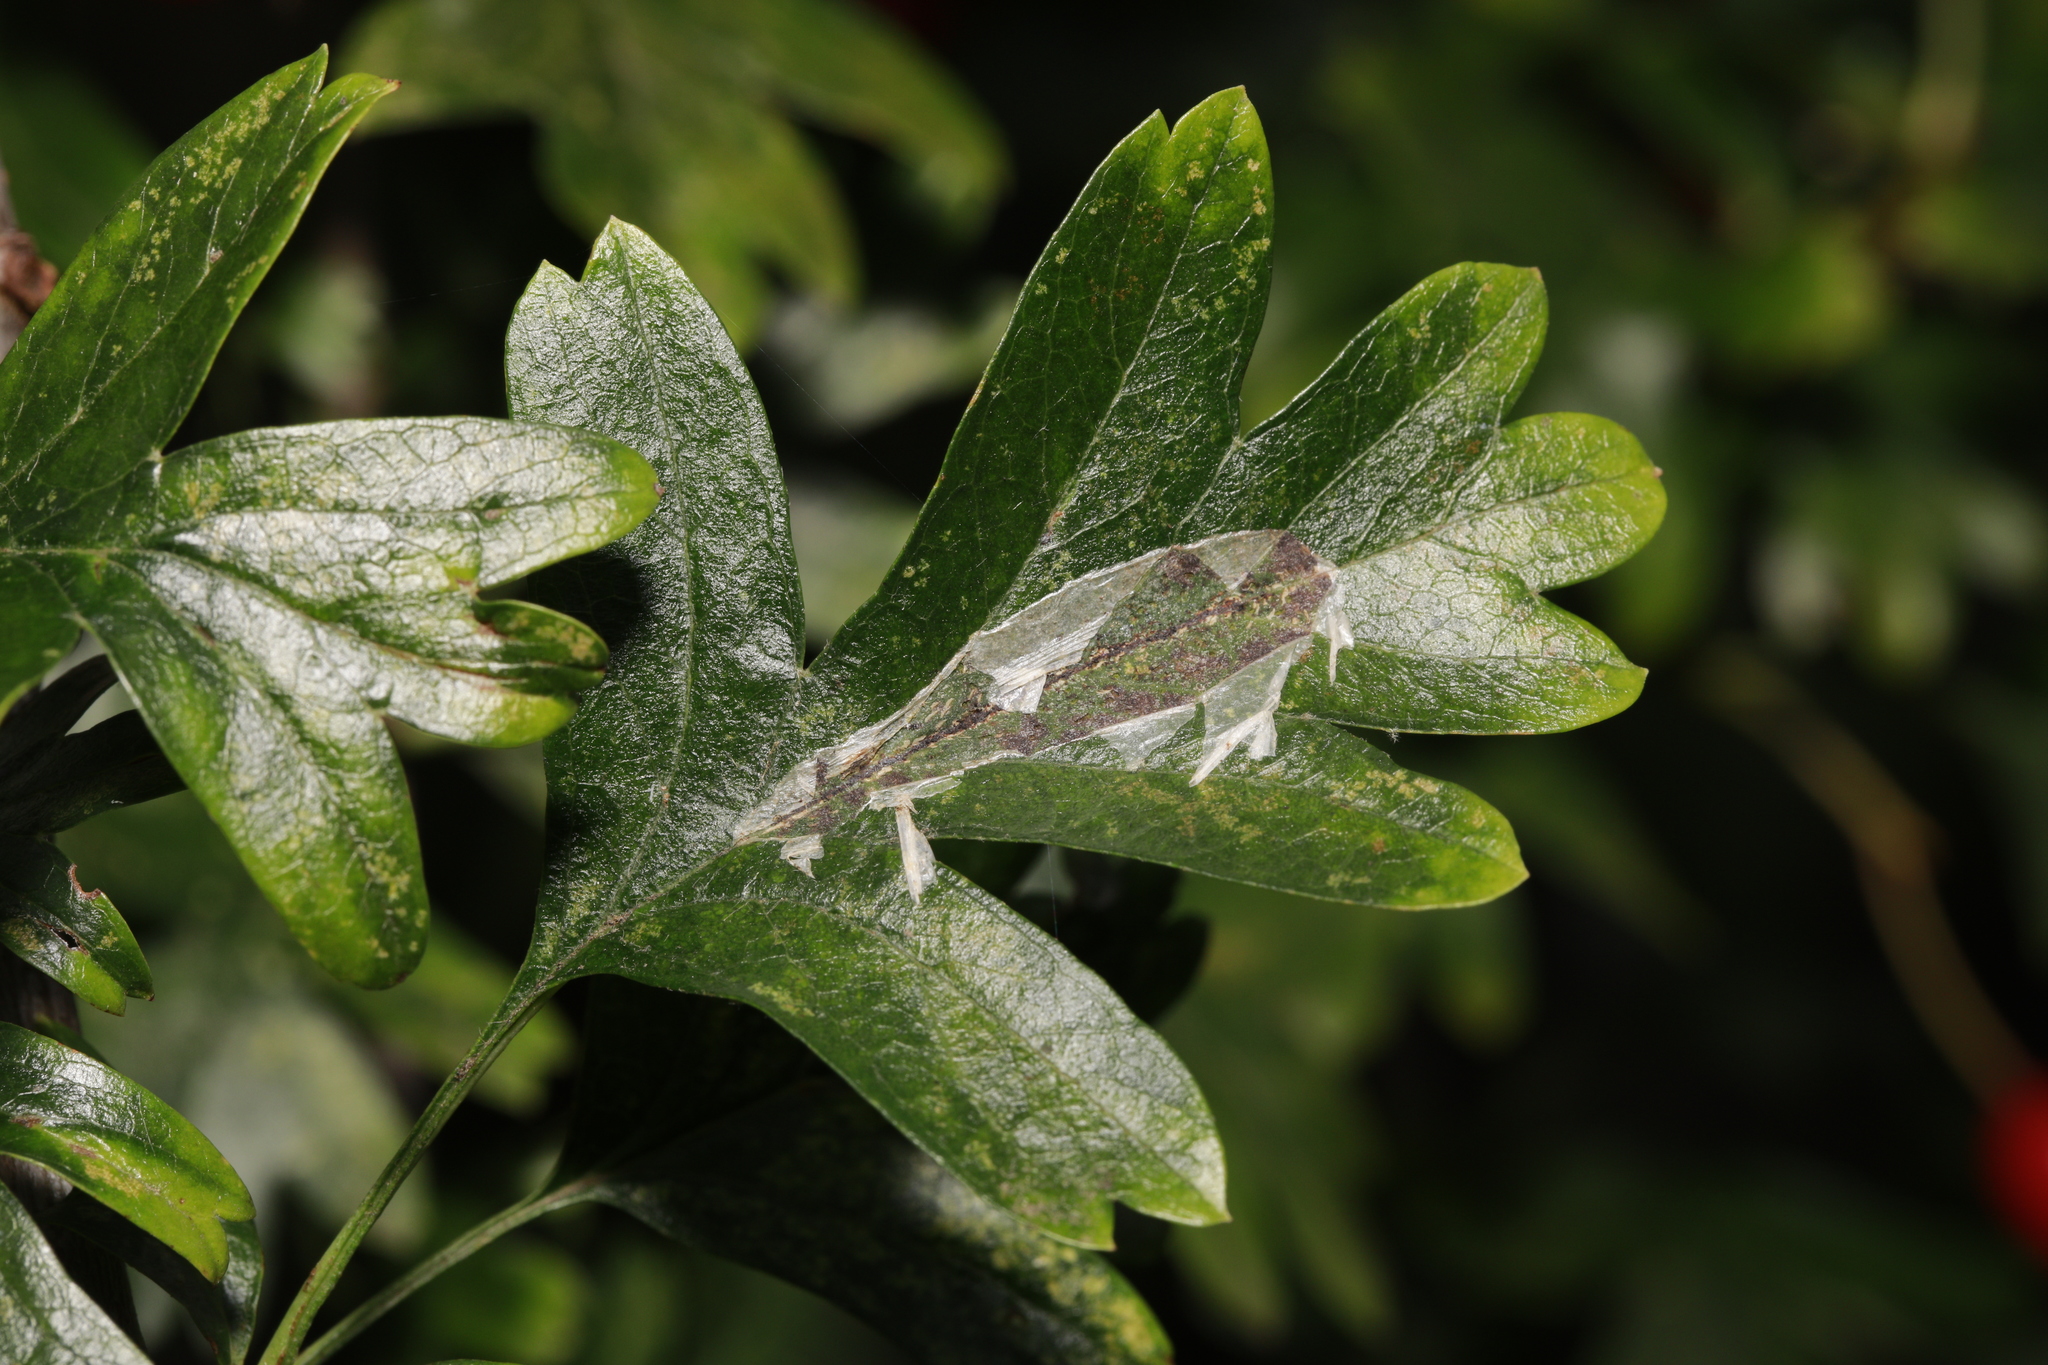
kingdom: Plantae
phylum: Tracheophyta
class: Magnoliopsida
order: Rosales
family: Rosaceae
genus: Crataegus
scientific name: Crataegus monogyna
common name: Hawthorn
